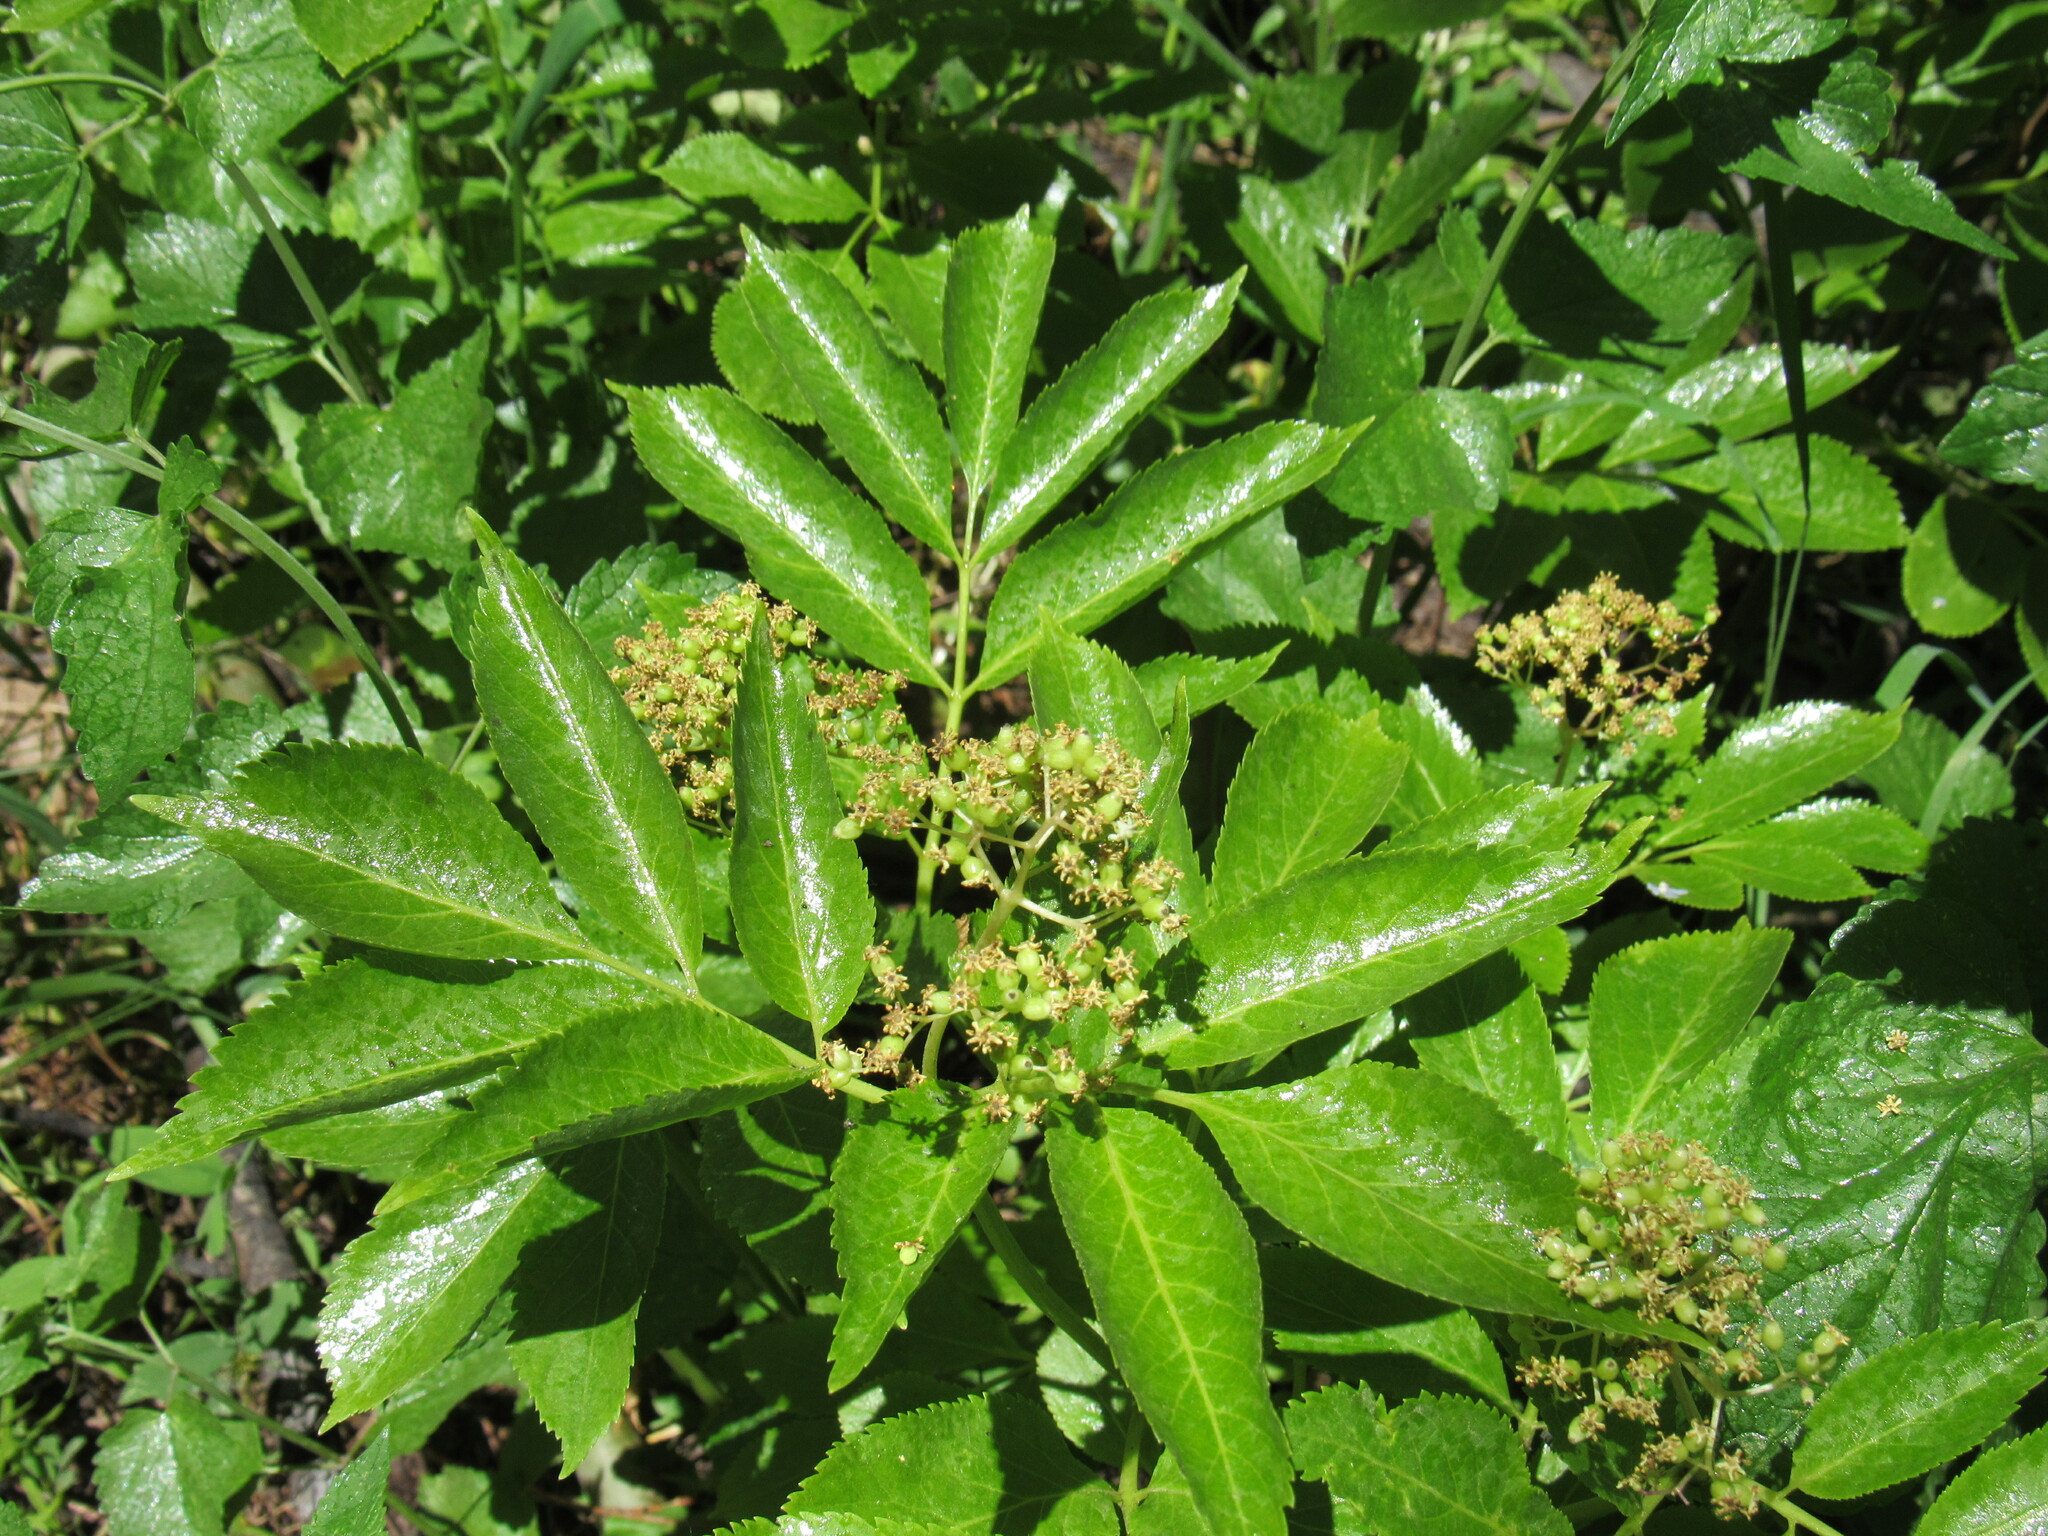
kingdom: Plantae
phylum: Tracheophyta
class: Magnoliopsida
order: Dipsacales
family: Viburnaceae
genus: Sambucus
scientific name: Sambucus racemosa
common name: Red-berried elder
